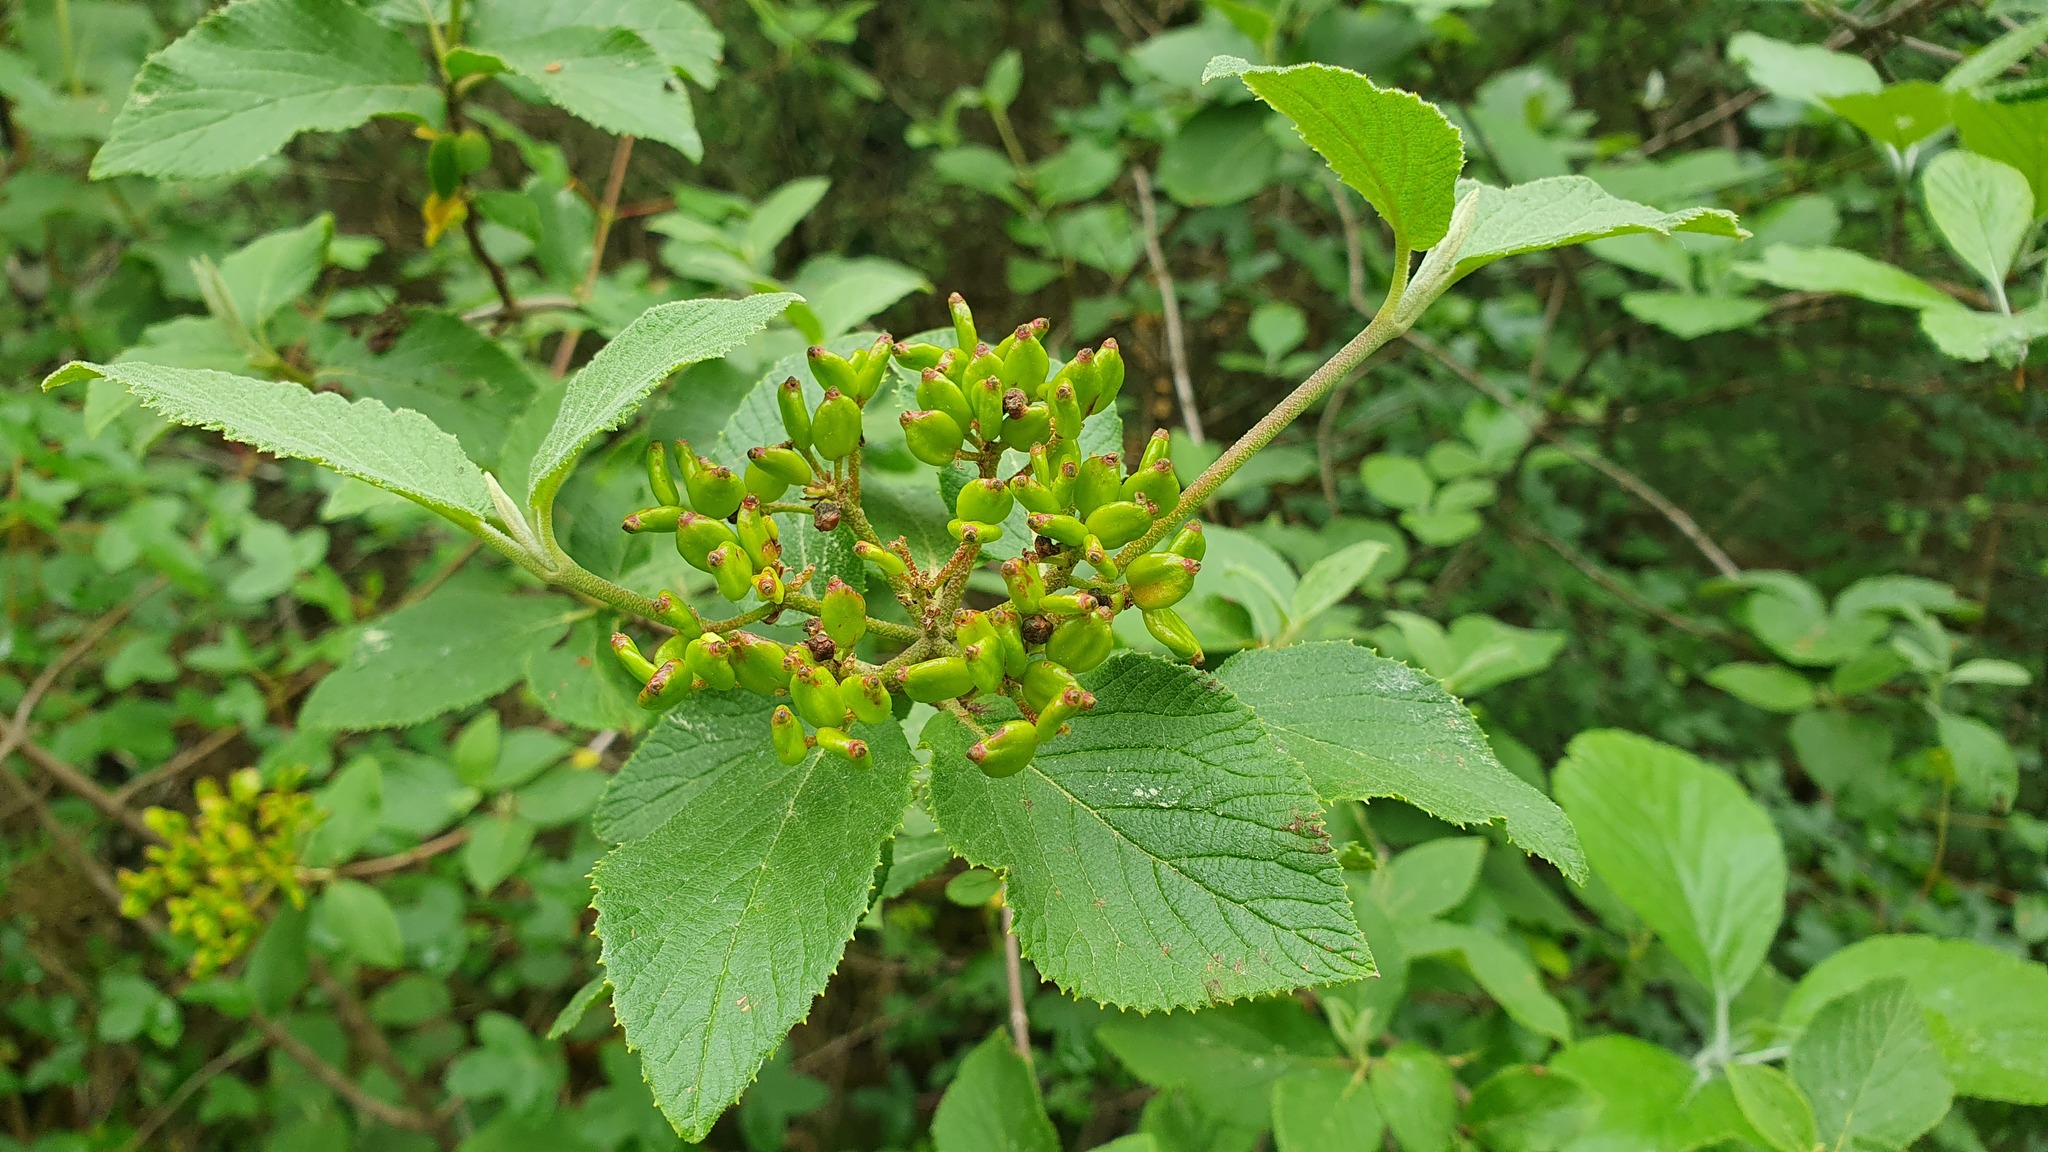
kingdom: Plantae
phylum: Tracheophyta
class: Magnoliopsida
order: Dipsacales
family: Viburnaceae
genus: Viburnum
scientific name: Viburnum lantana
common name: Wayfaring tree
